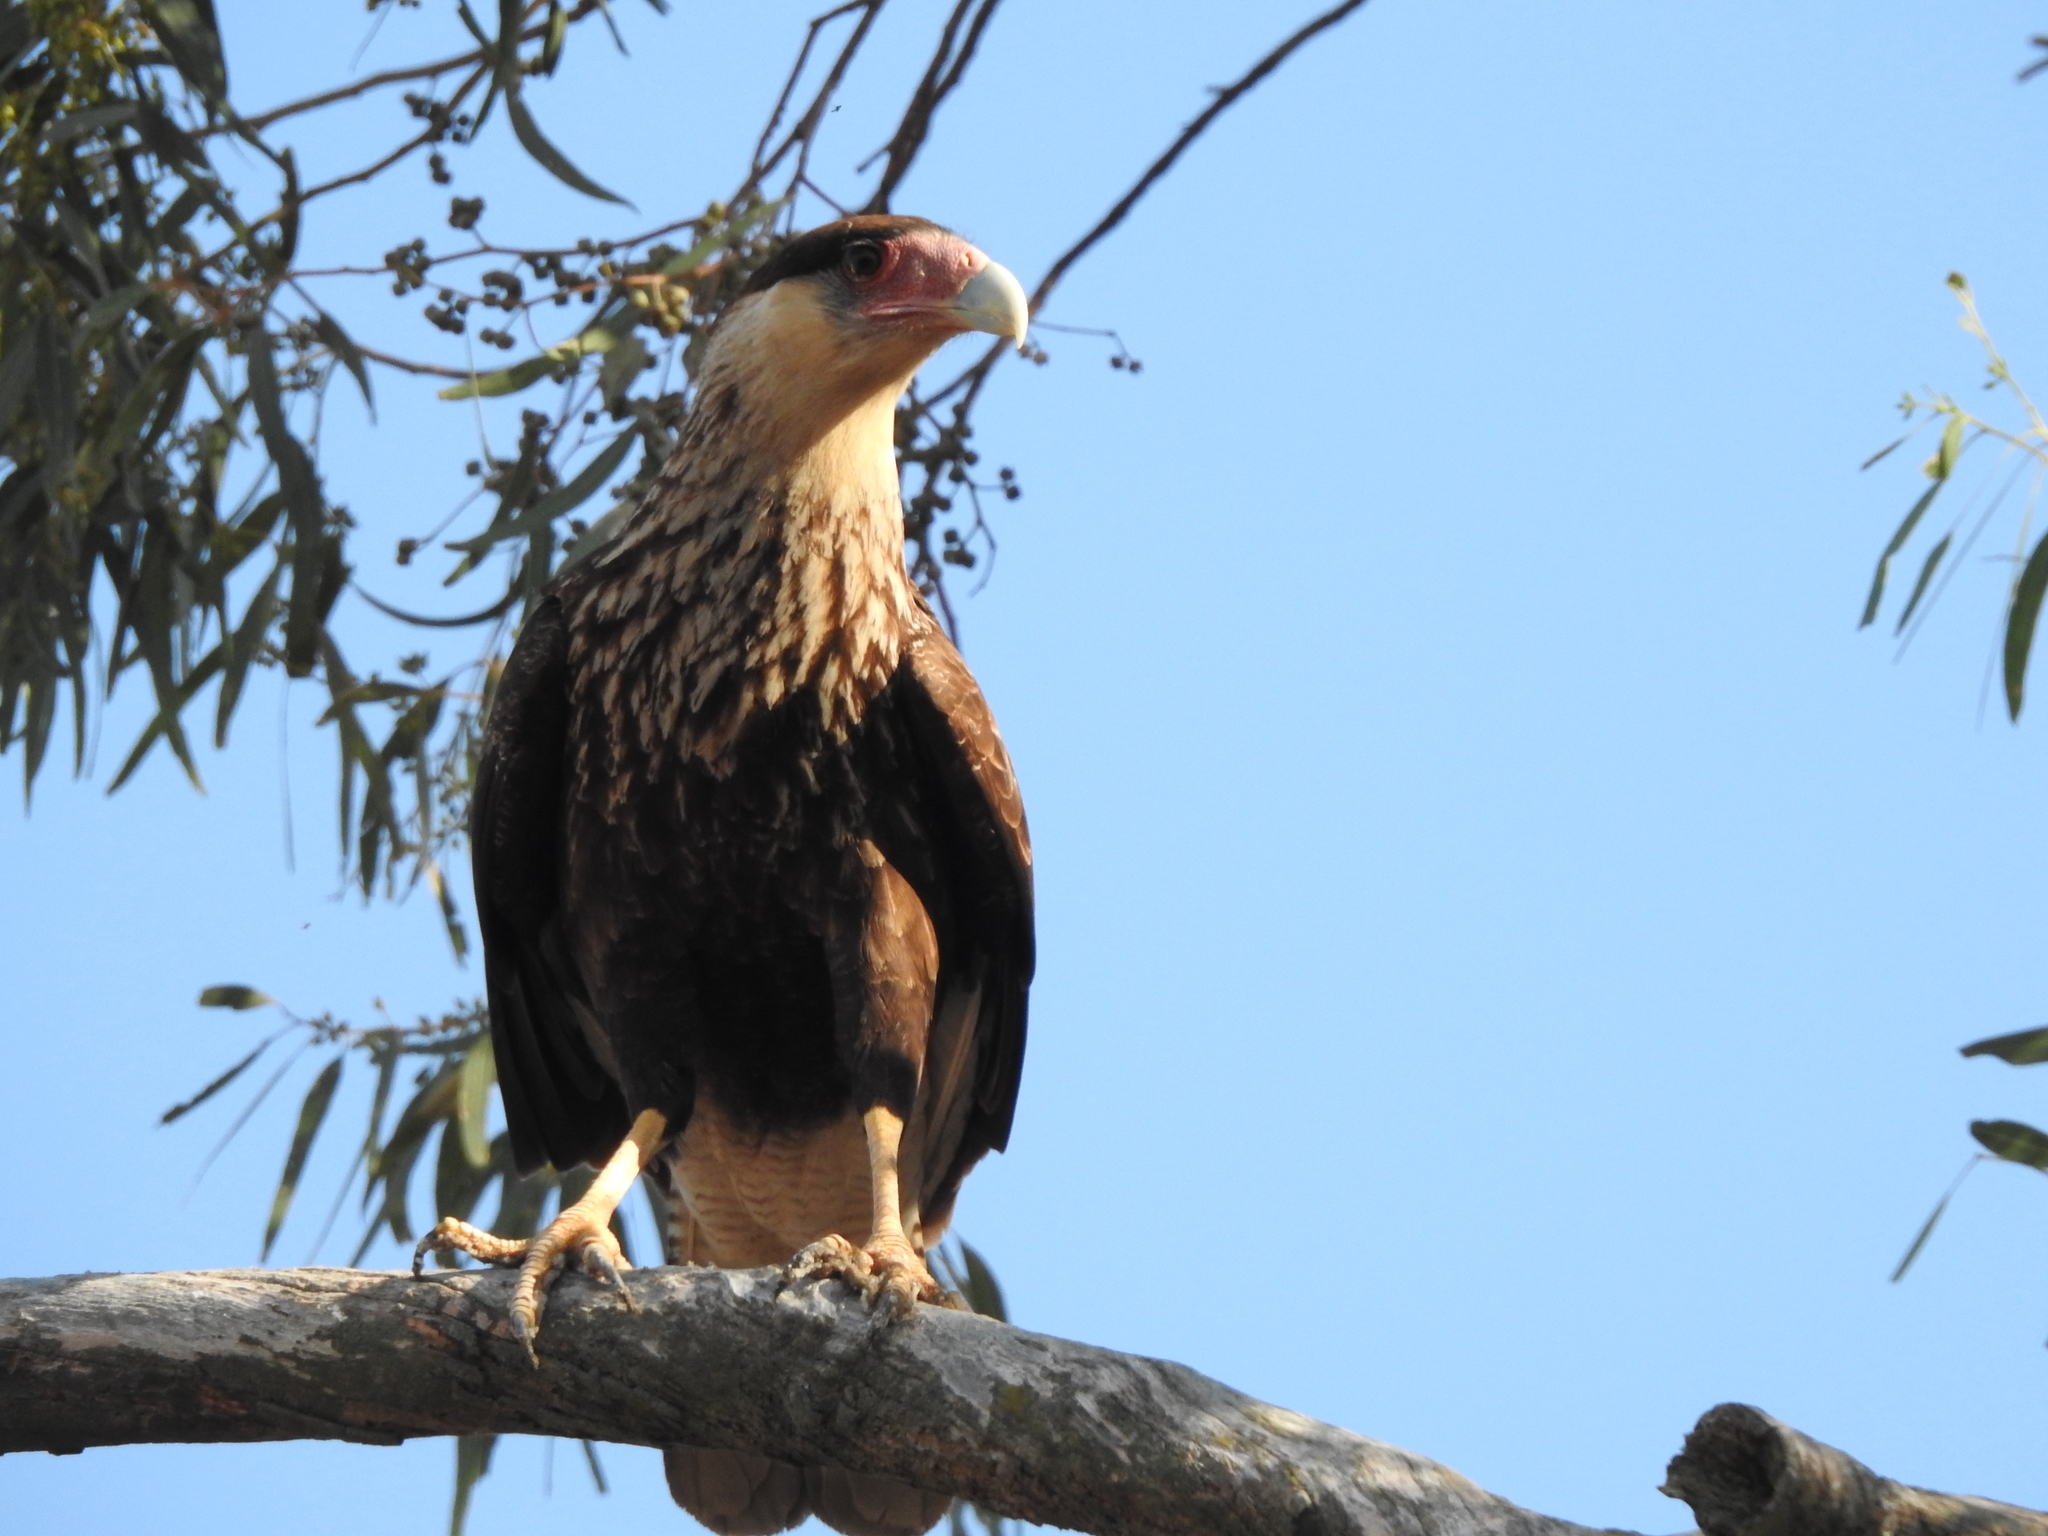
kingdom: Animalia
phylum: Chordata
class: Aves
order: Falconiformes
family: Falconidae
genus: Caracara
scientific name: Caracara plancus
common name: Southern caracara
